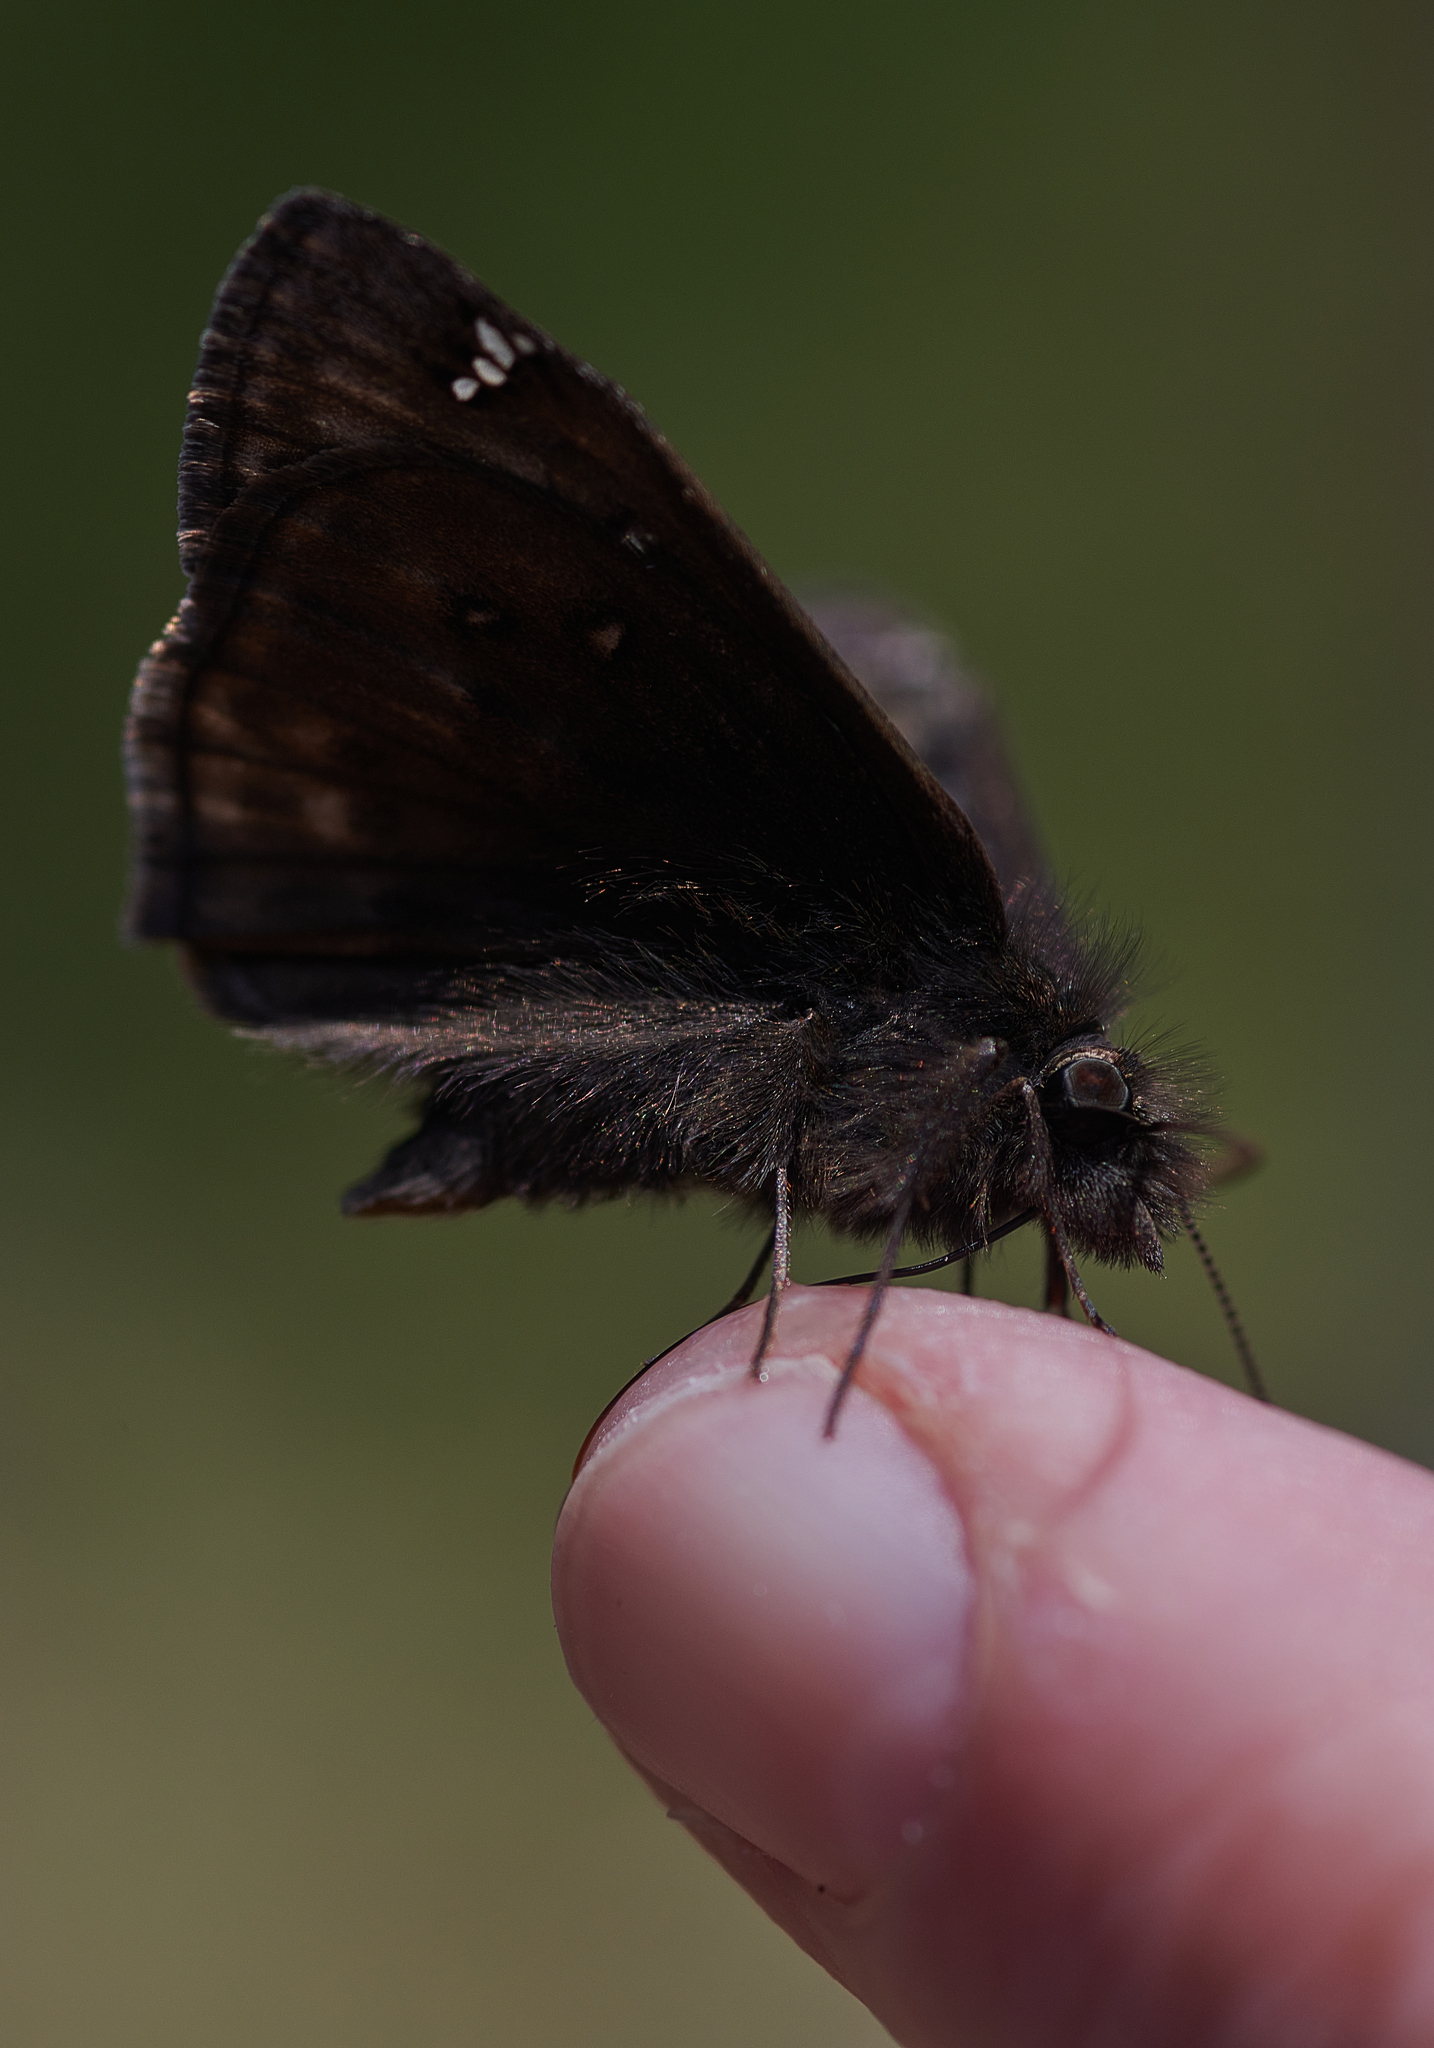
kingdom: Animalia
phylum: Arthropoda
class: Insecta
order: Lepidoptera
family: Hesperiidae
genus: Erynnis
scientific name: Erynnis juvenalis
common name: Juvenal's duskywing
